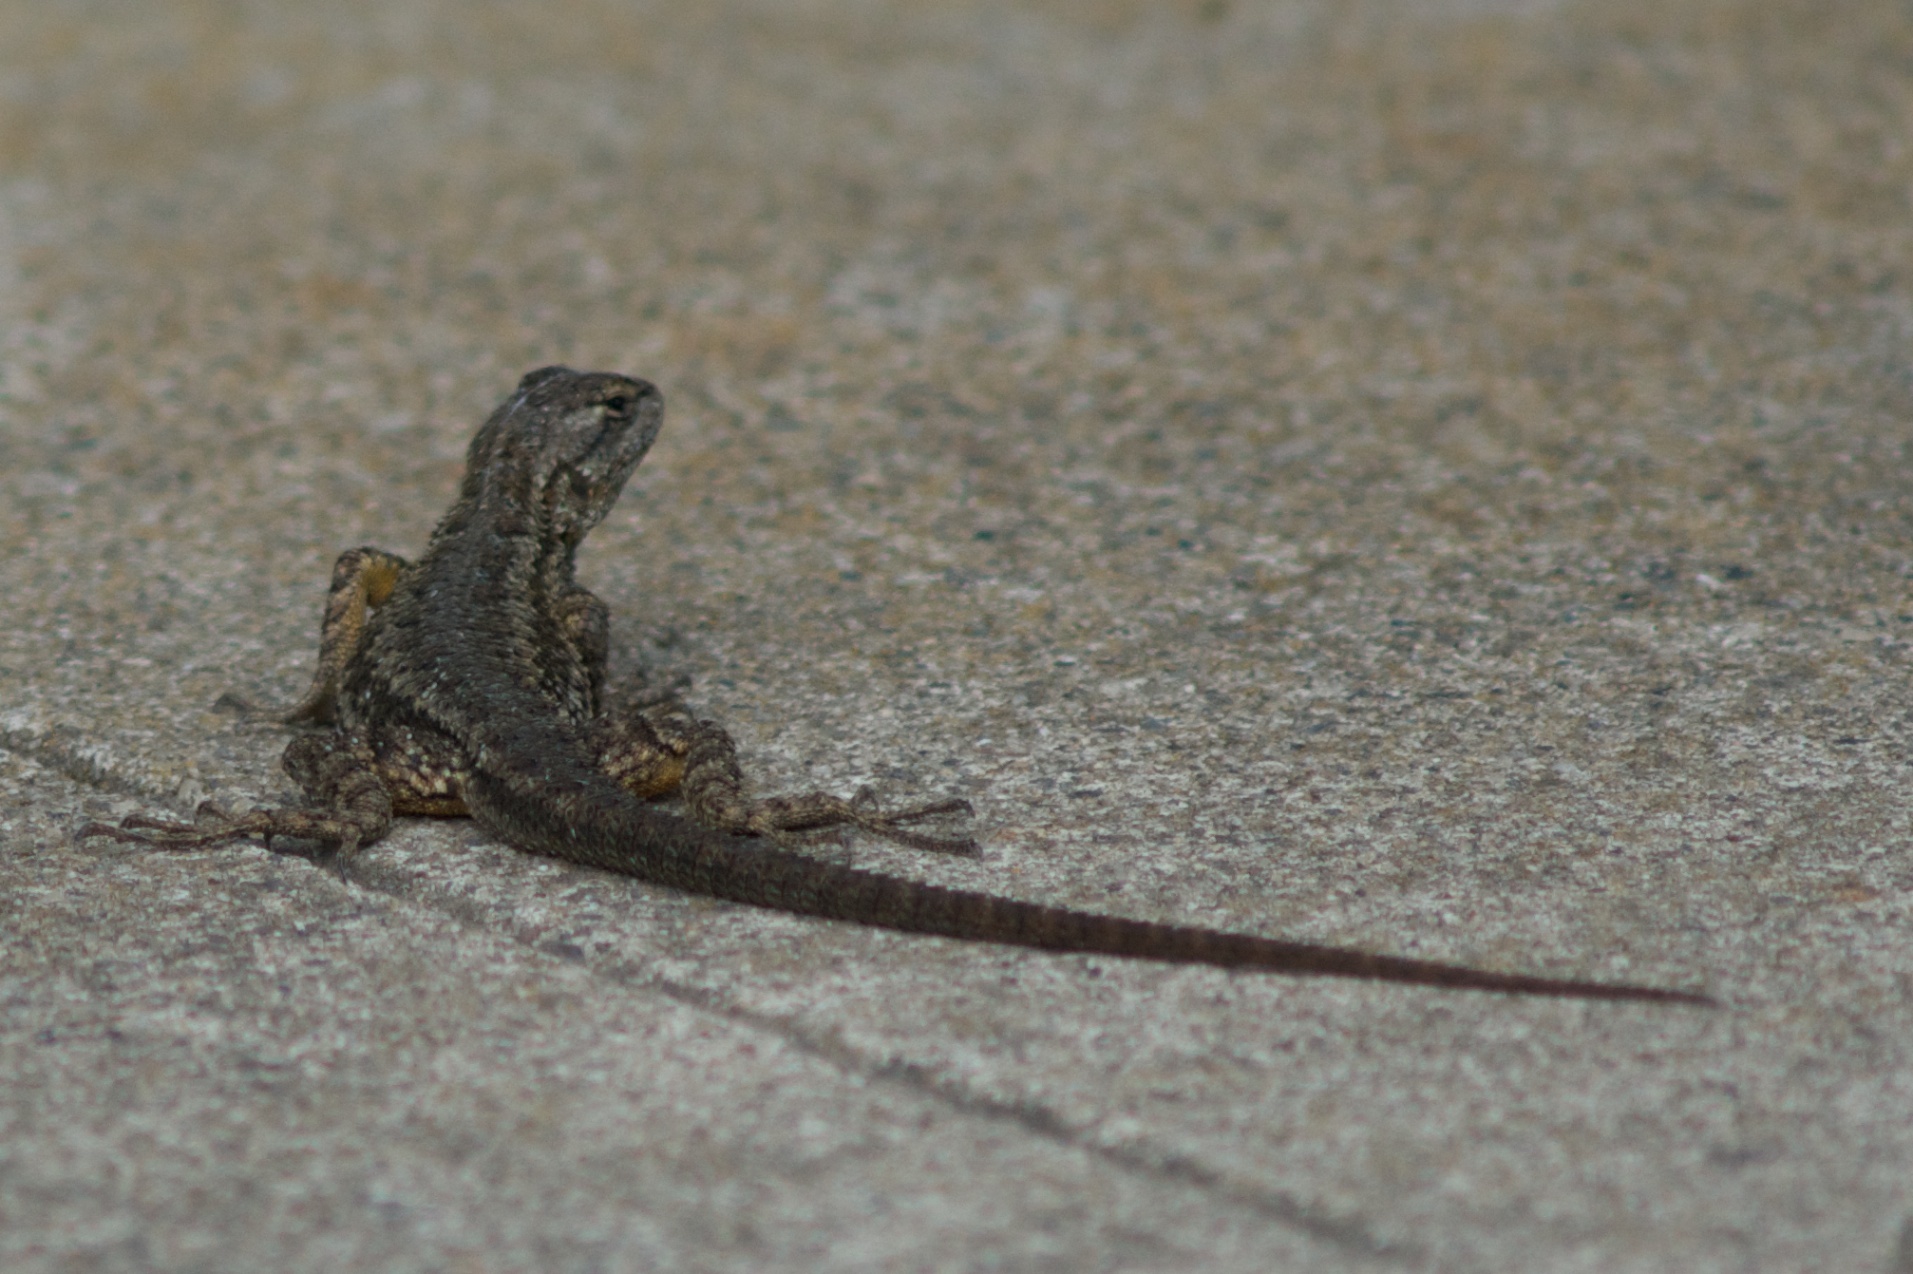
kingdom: Animalia
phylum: Chordata
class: Squamata
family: Phrynosomatidae
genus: Sceloporus
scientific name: Sceloporus occidentalis
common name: Western fence lizard
